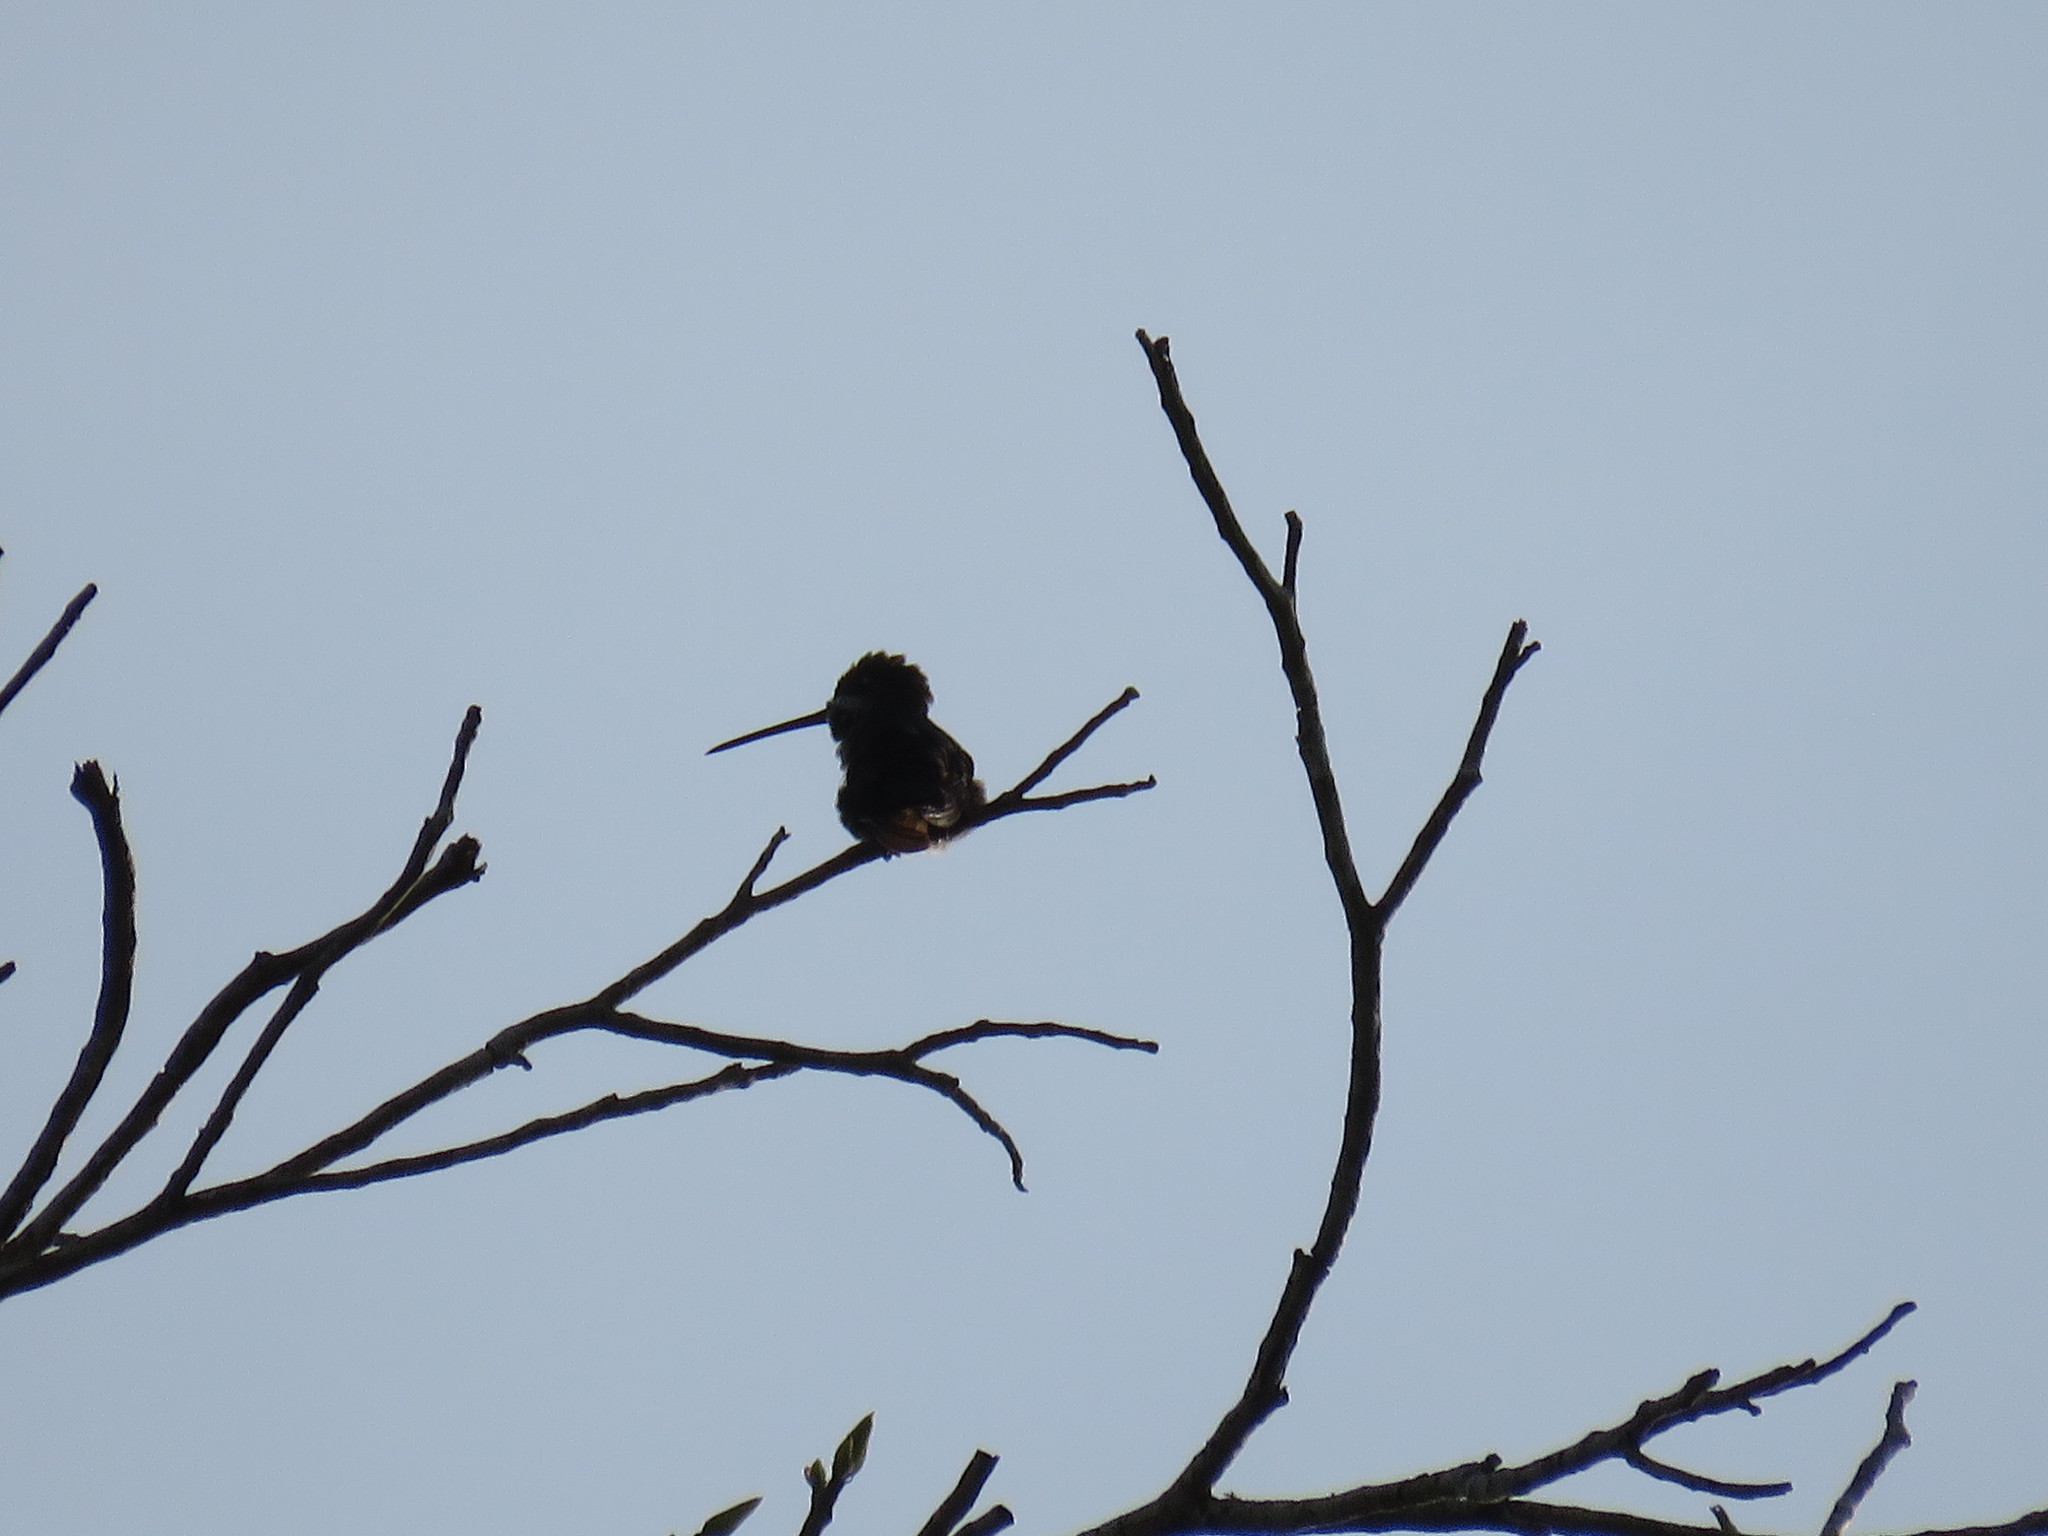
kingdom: Animalia
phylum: Chordata
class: Aves
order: Apodiformes
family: Trochilidae
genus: Heliomaster
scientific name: Heliomaster longirostris
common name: Long-billed starthroat
